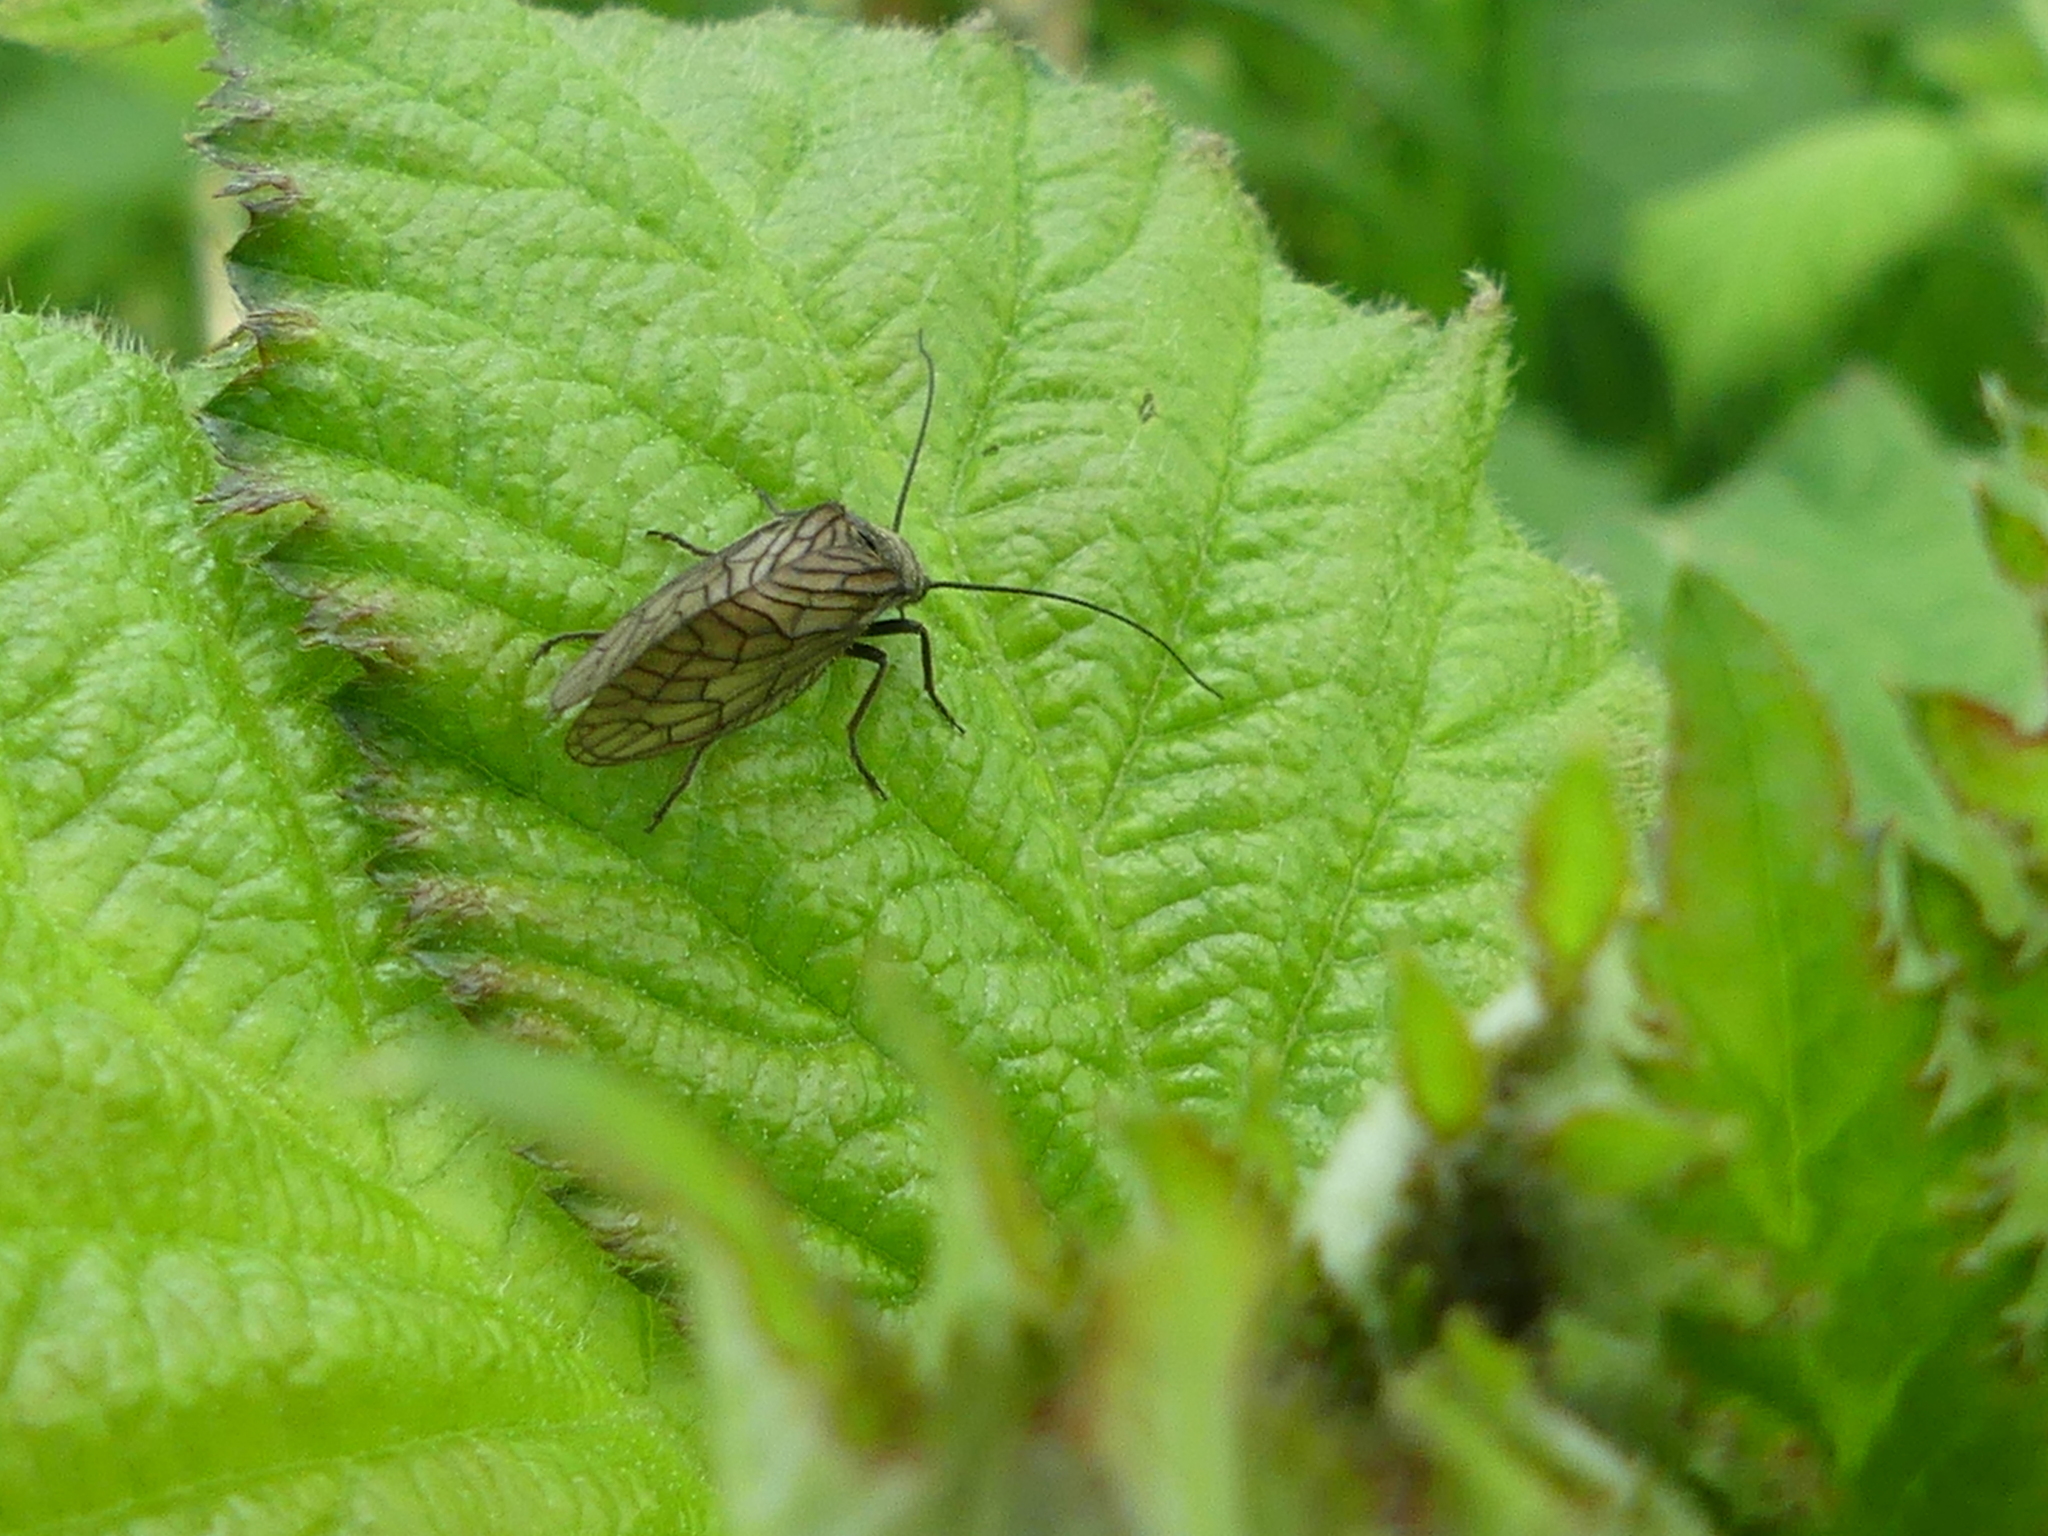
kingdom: Animalia
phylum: Arthropoda
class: Insecta
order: Megaloptera
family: Sialidae
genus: Sialis
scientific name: Sialis
